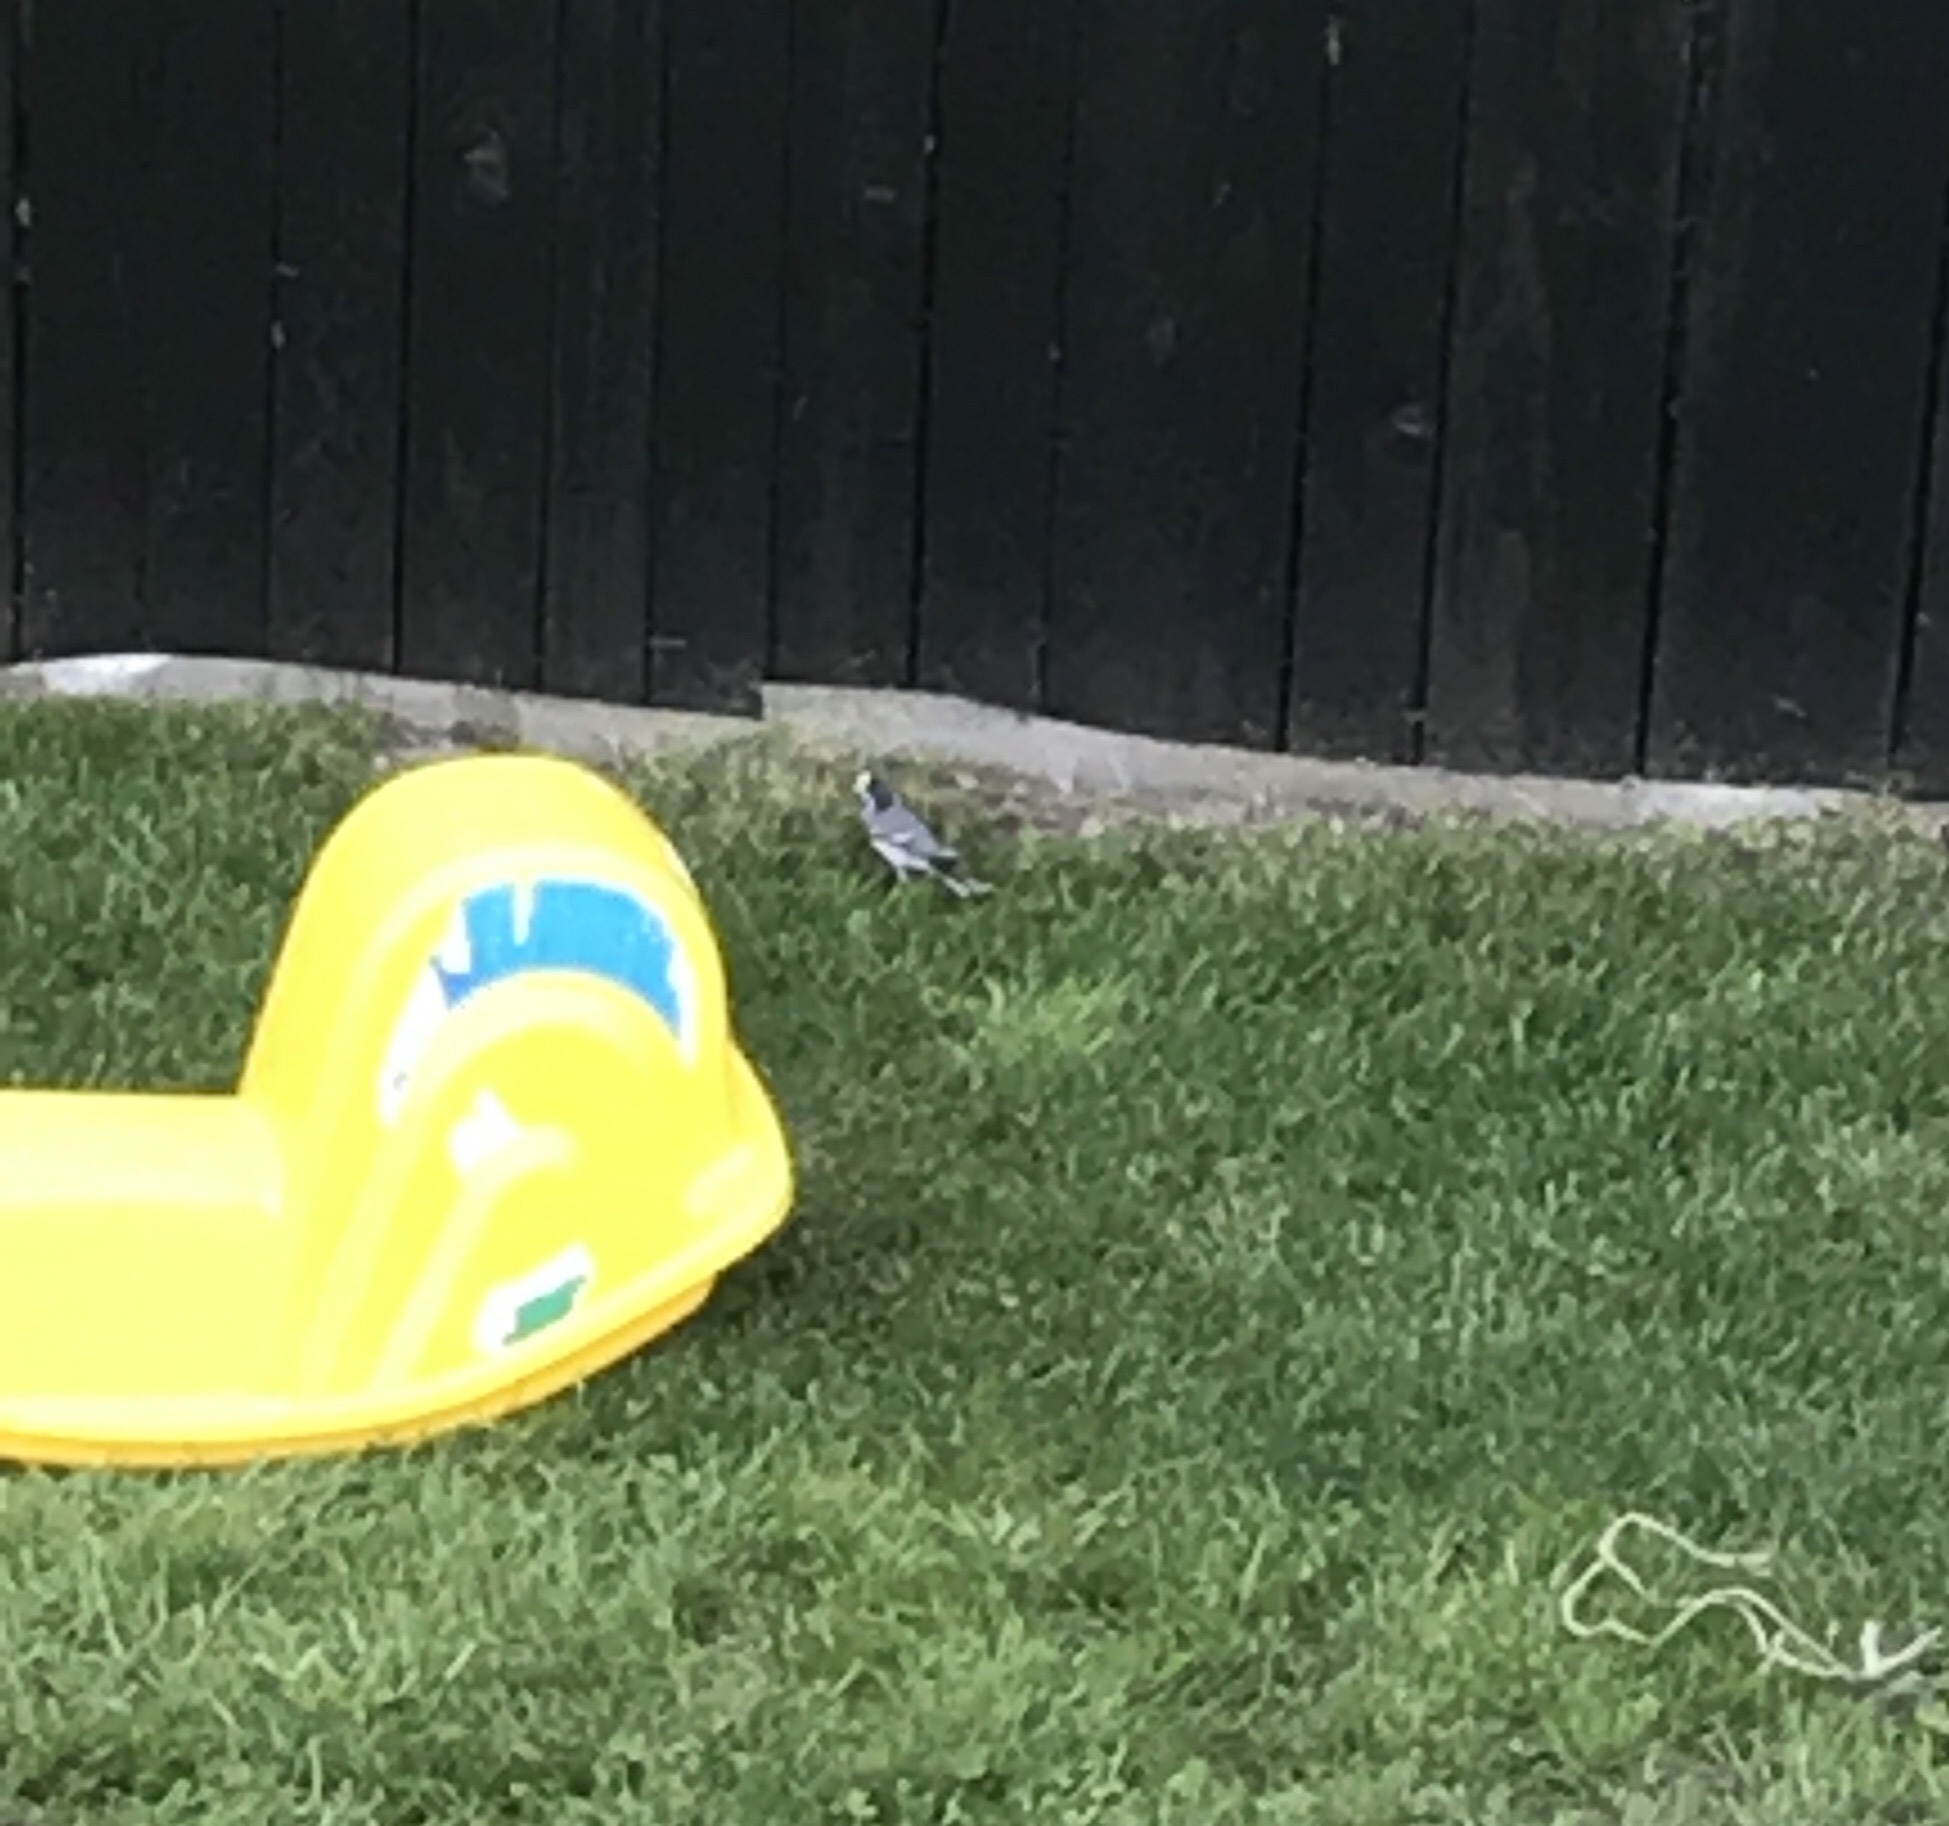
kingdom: Animalia
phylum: Chordata
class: Aves
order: Passeriformes
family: Motacillidae
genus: Motacilla
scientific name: Motacilla alba
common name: White wagtail
